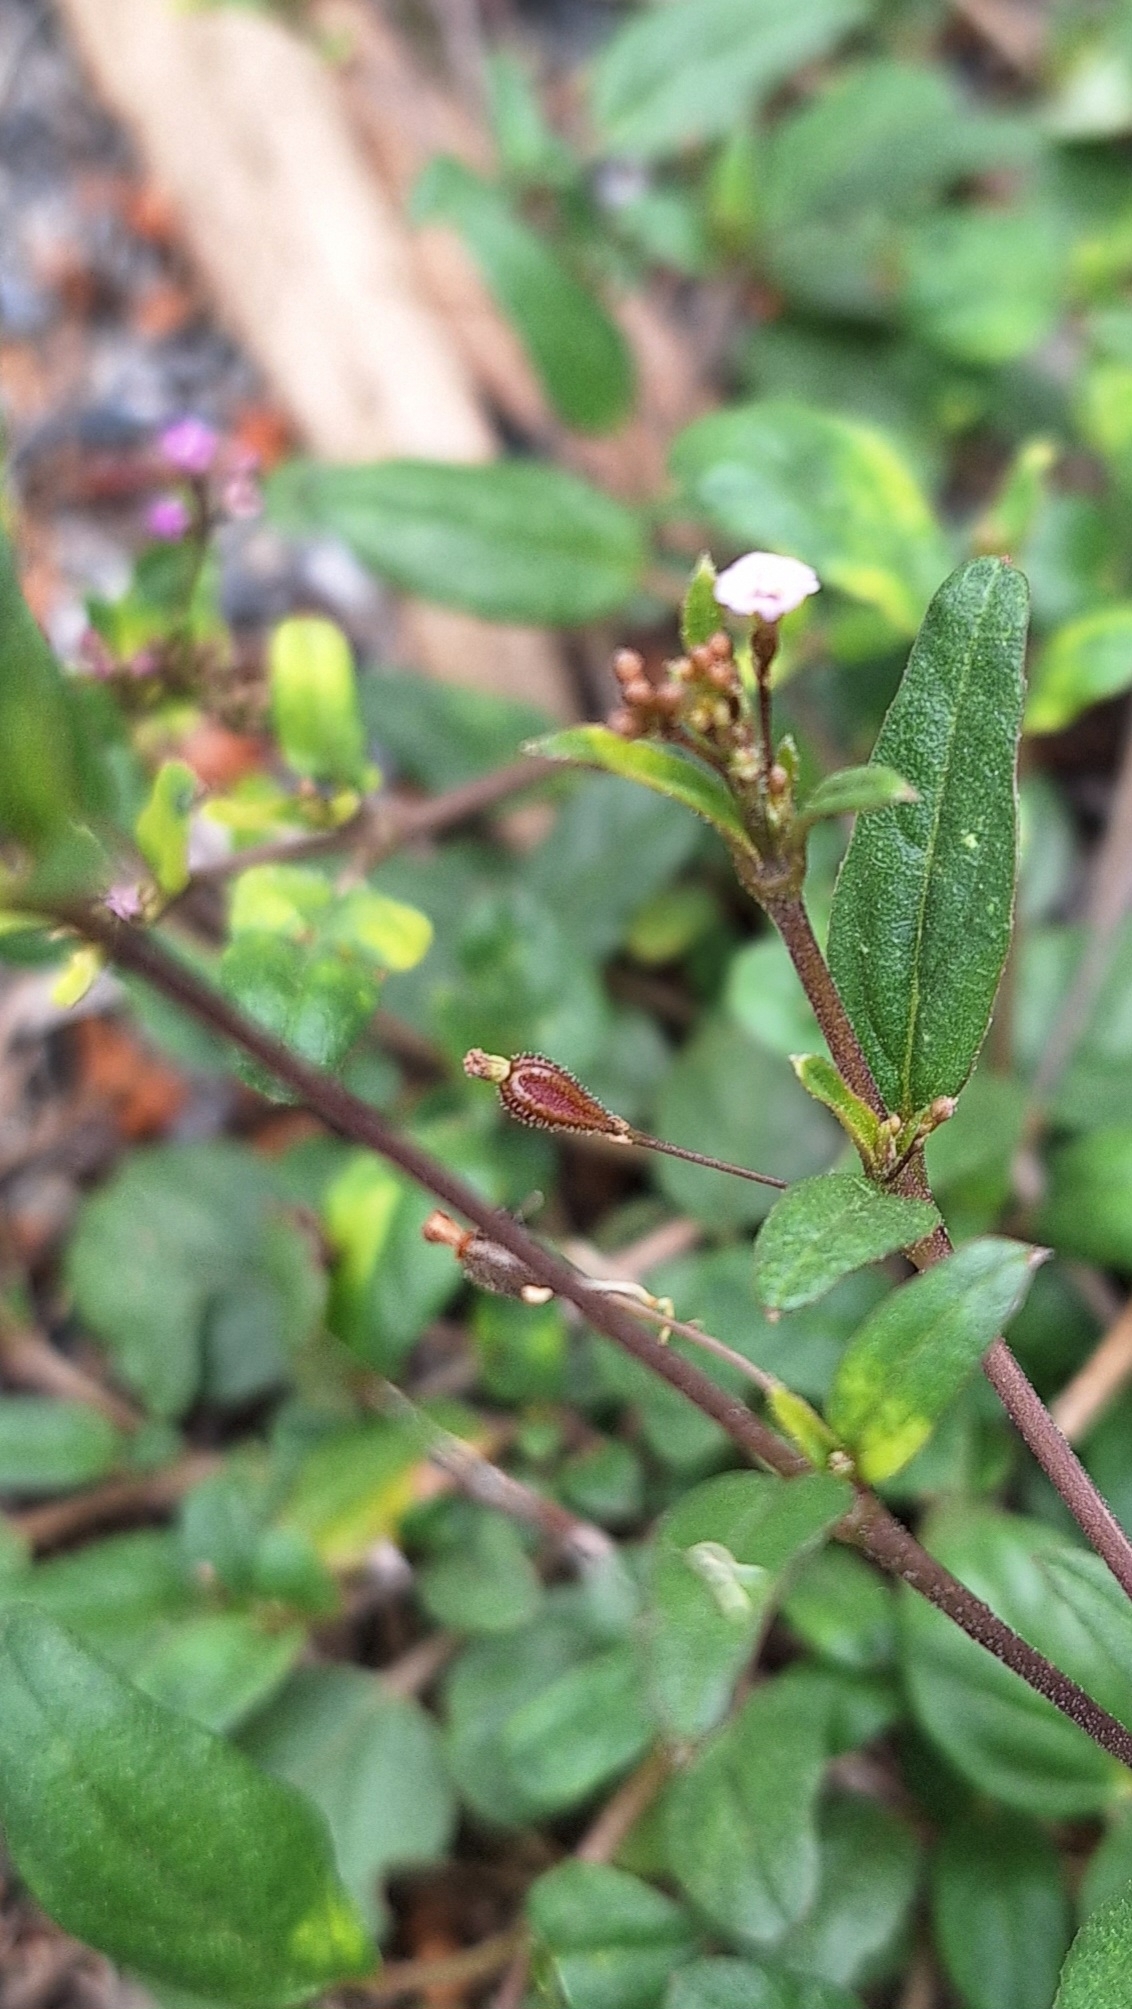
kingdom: Plantae
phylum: Tracheophyta
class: Magnoliopsida
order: Caryophyllales
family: Nyctaginaceae
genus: Boerhavia
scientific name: Boerhavia dominii
